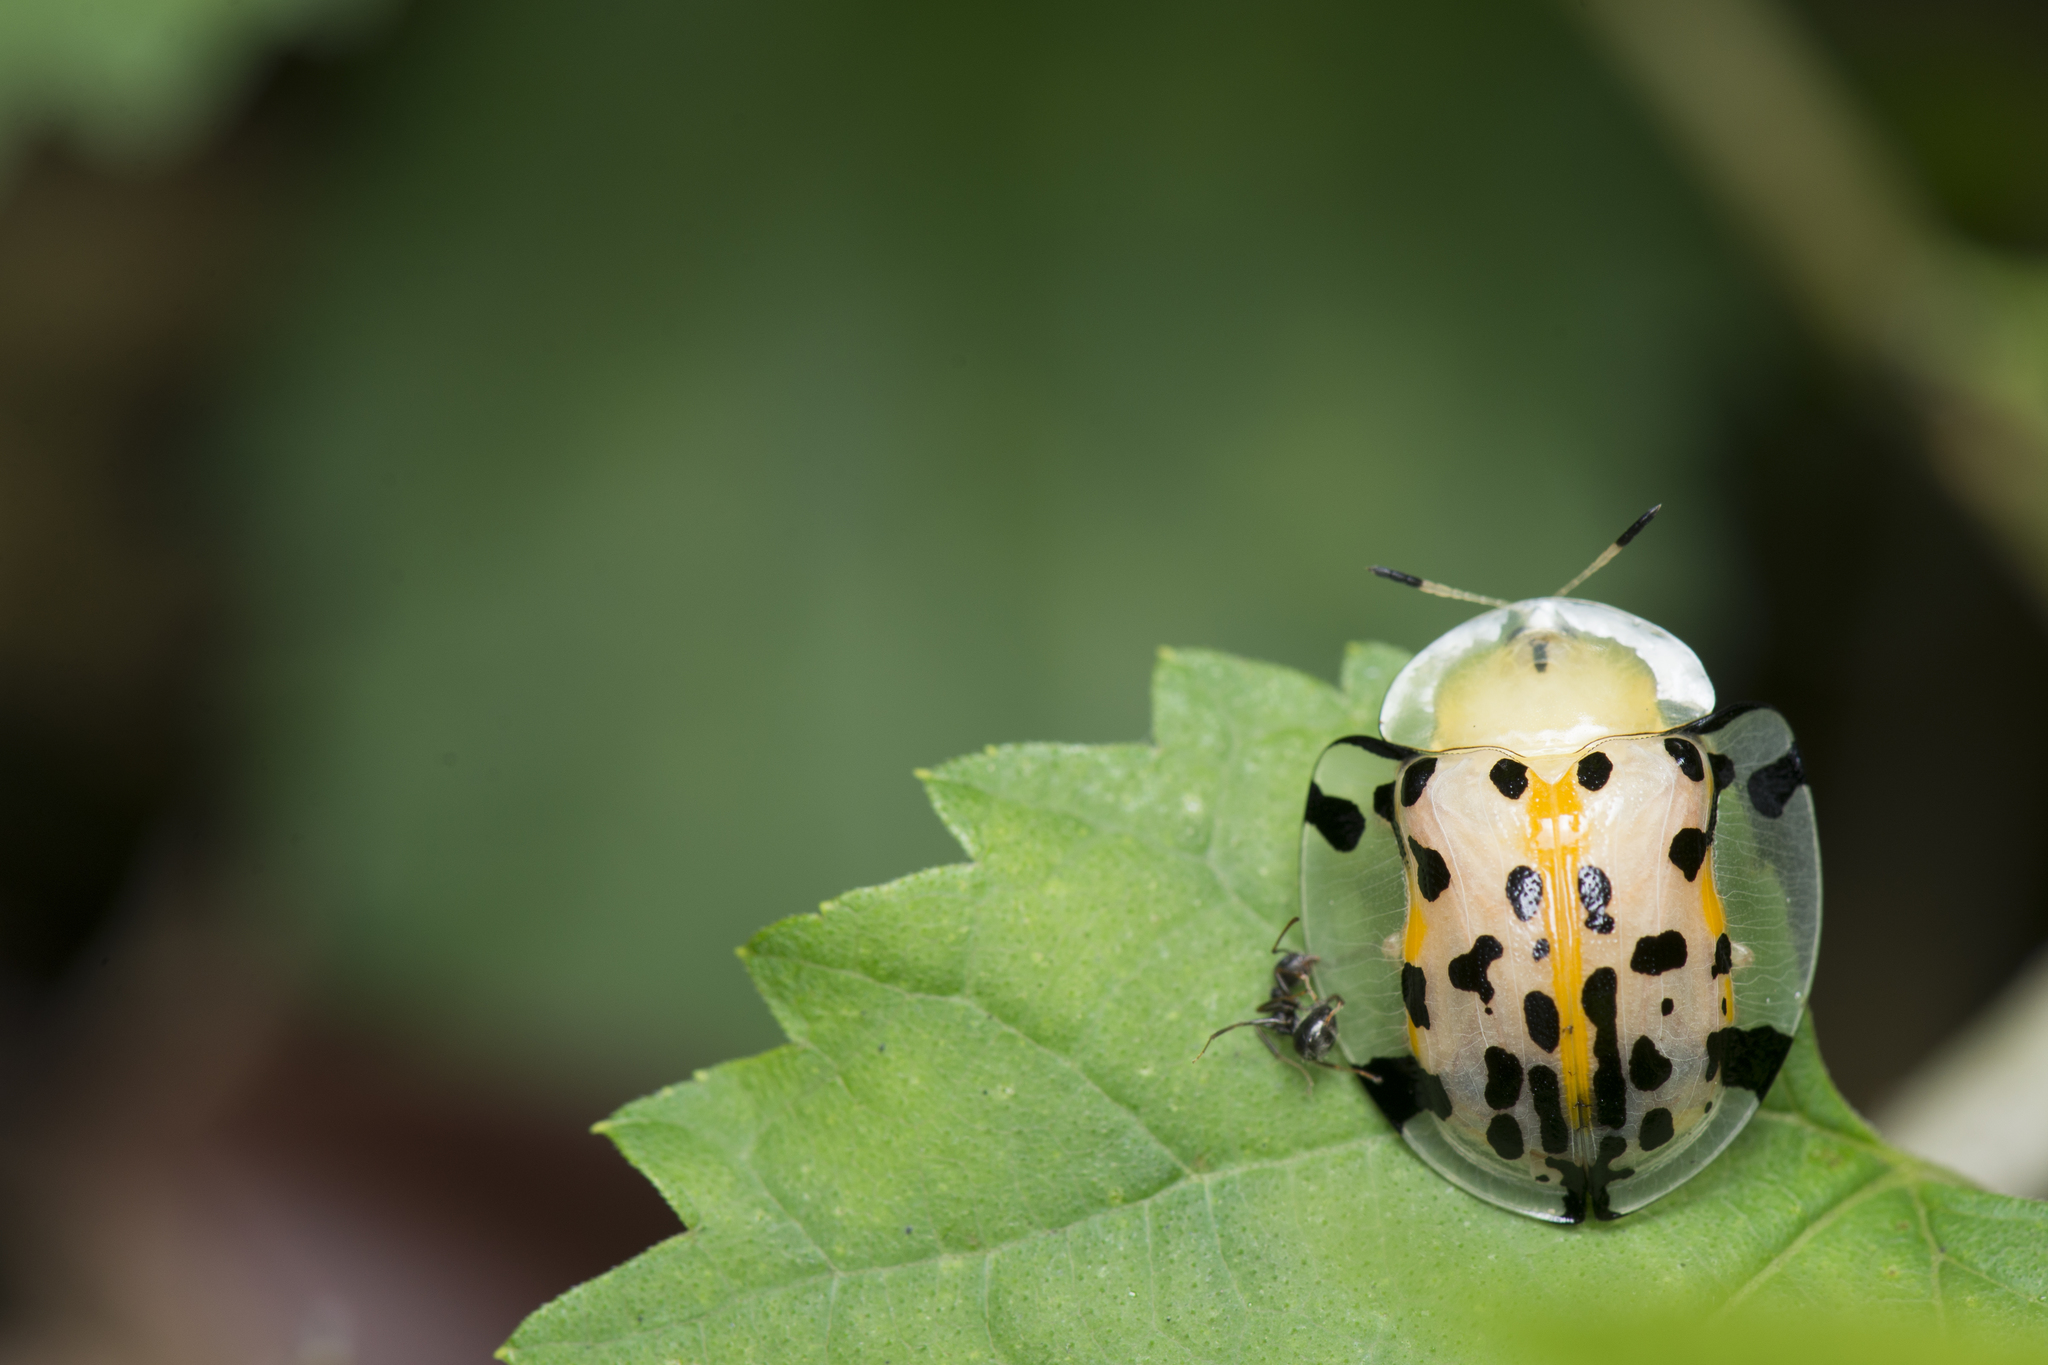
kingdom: Animalia
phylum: Arthropoda
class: Insecta
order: Coleoptera
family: Chrysomelidae
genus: Aspidimorpha
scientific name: Aspidimorpha miliaris
